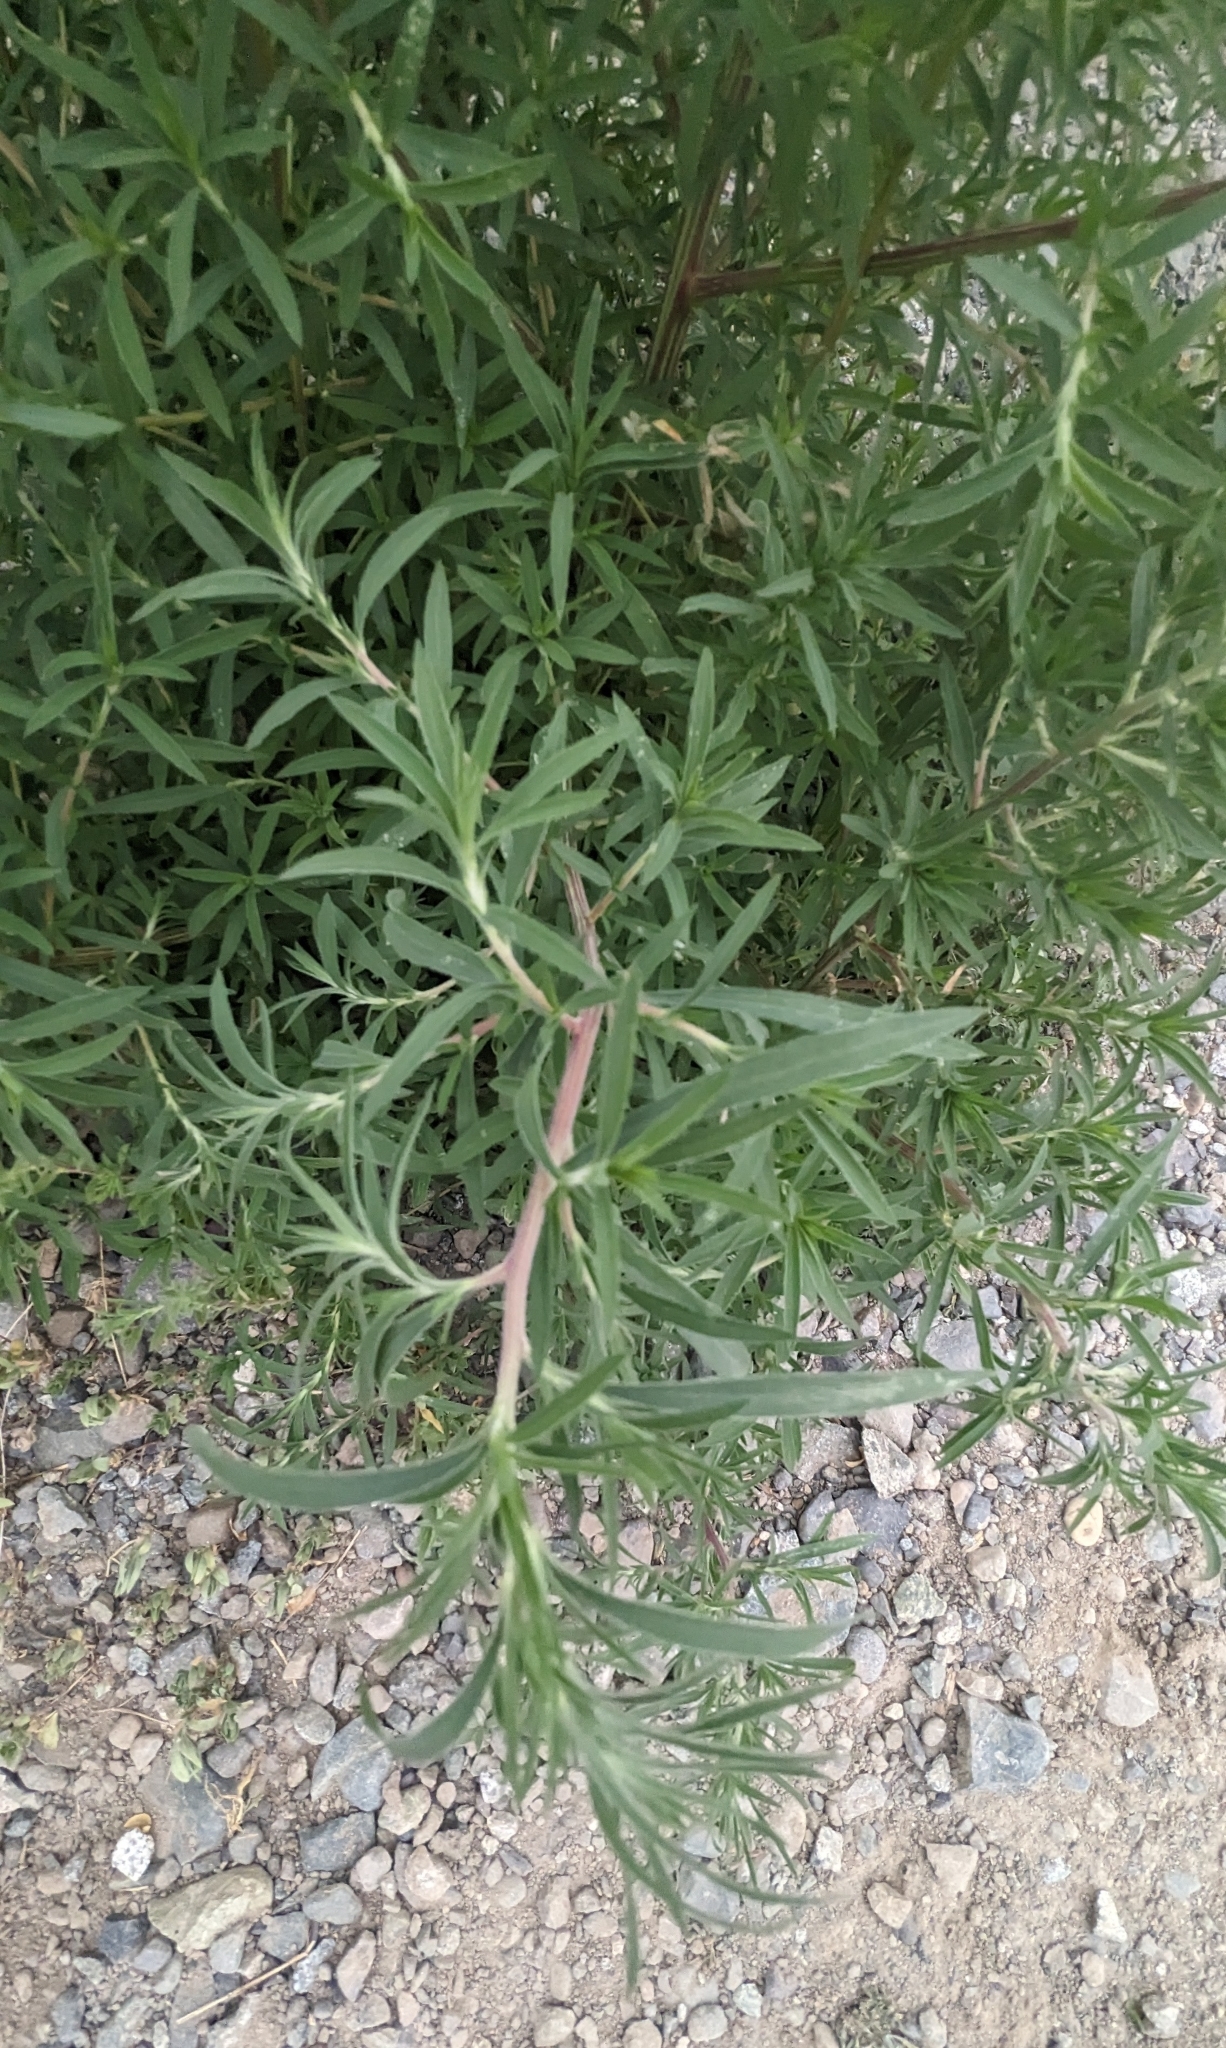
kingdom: Plantae
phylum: Tracheophyta
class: Magnoliopsida
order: Caryophyllales
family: Amaranthaceae
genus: Bassia
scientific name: Bassia scoparia
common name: Belvedere
